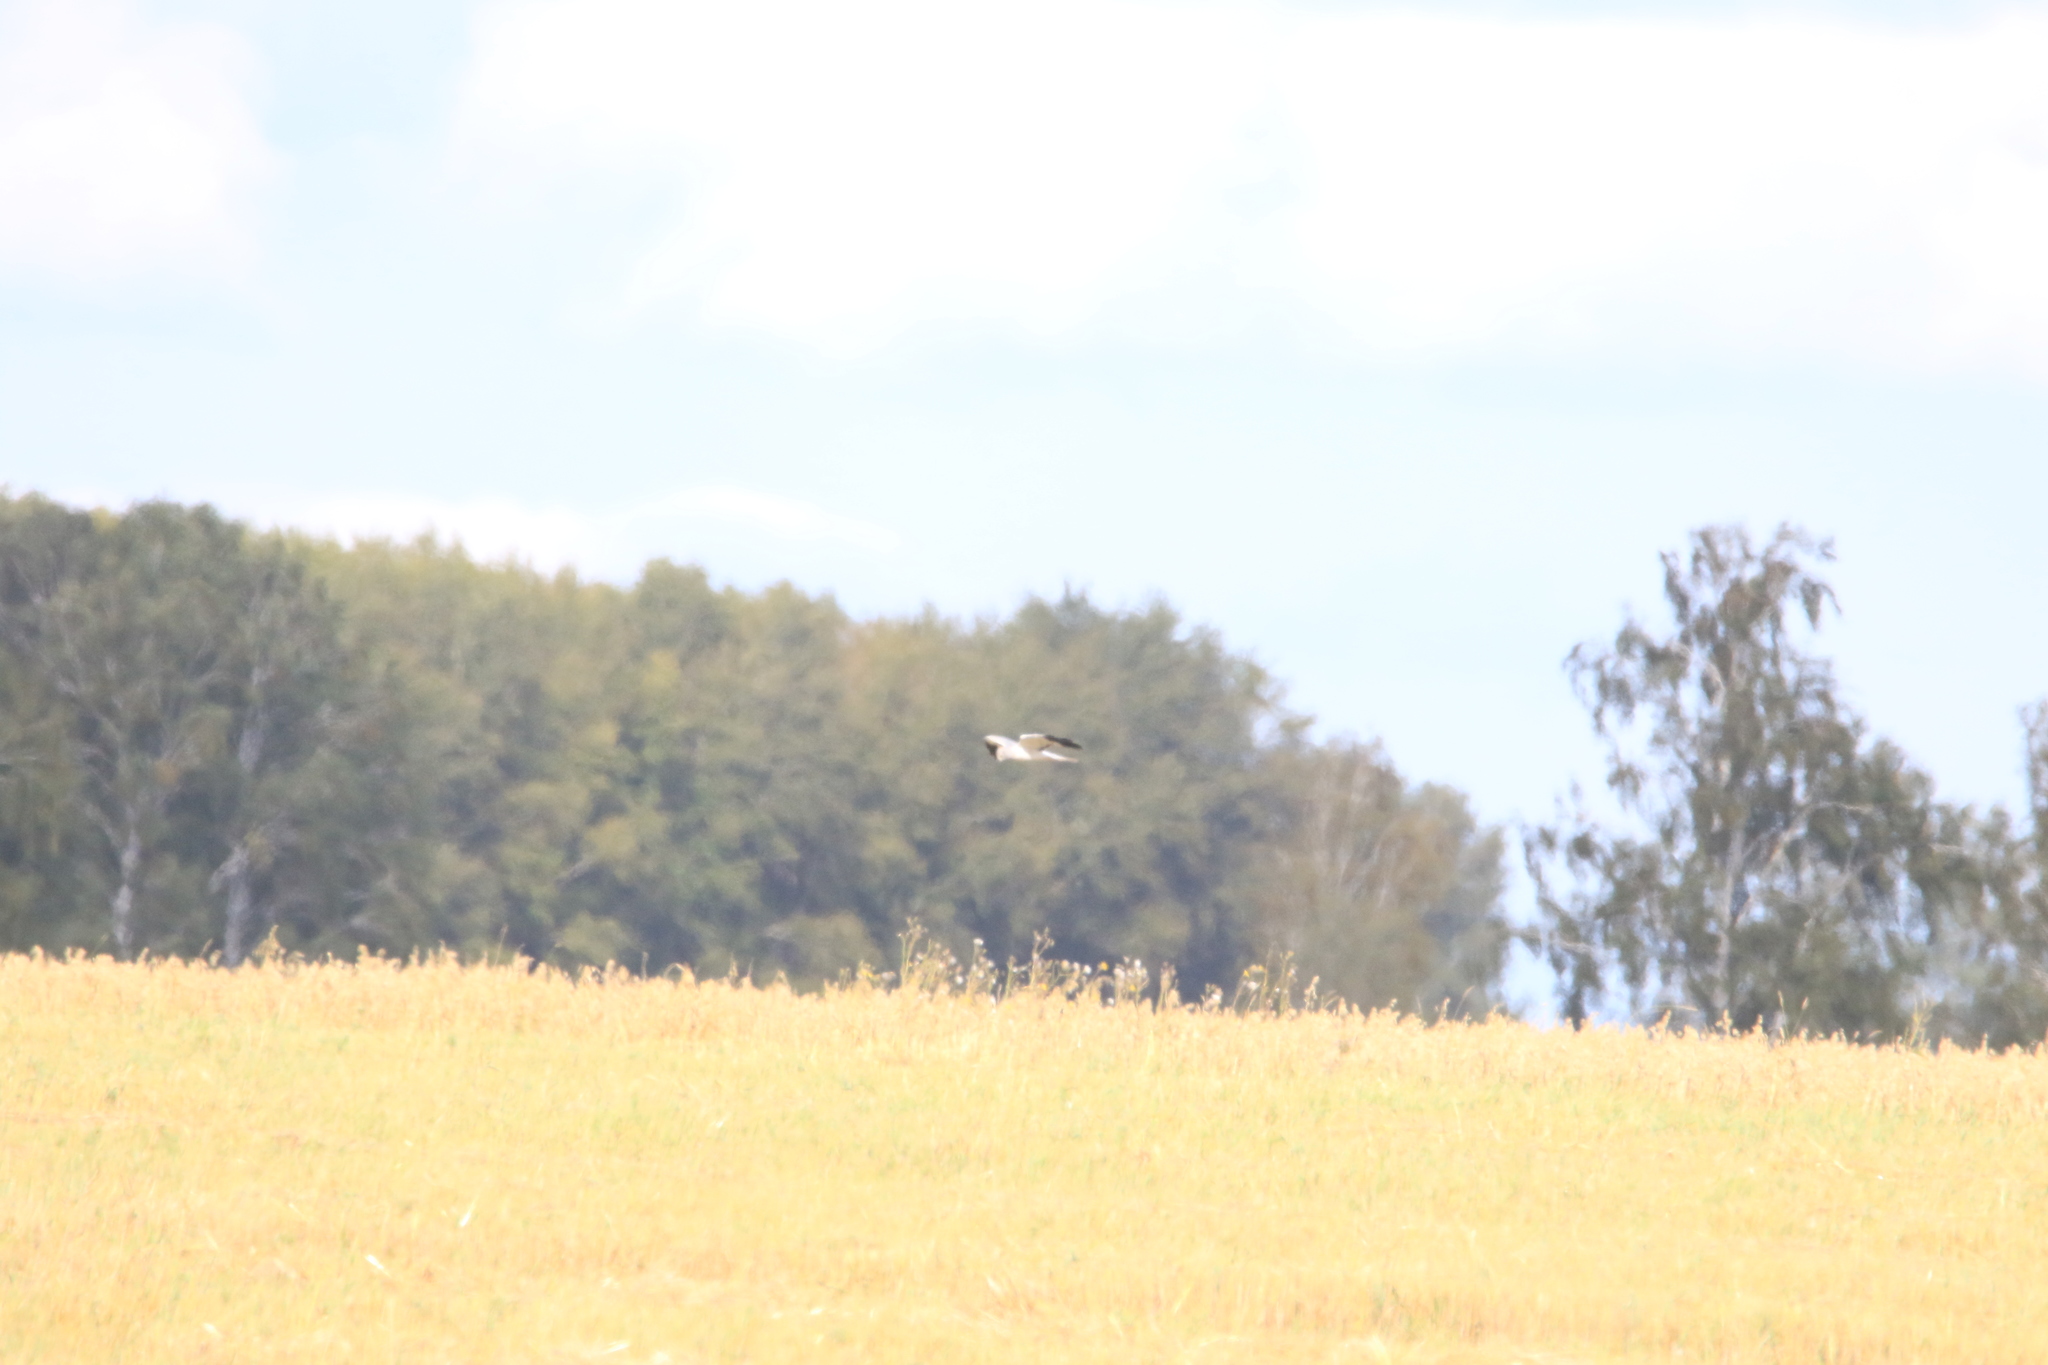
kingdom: Animalia
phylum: Chordata
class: Aves
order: Accipitriformes
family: Accipitridae
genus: Circus
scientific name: Circus cyaneus
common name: Hen harrier
